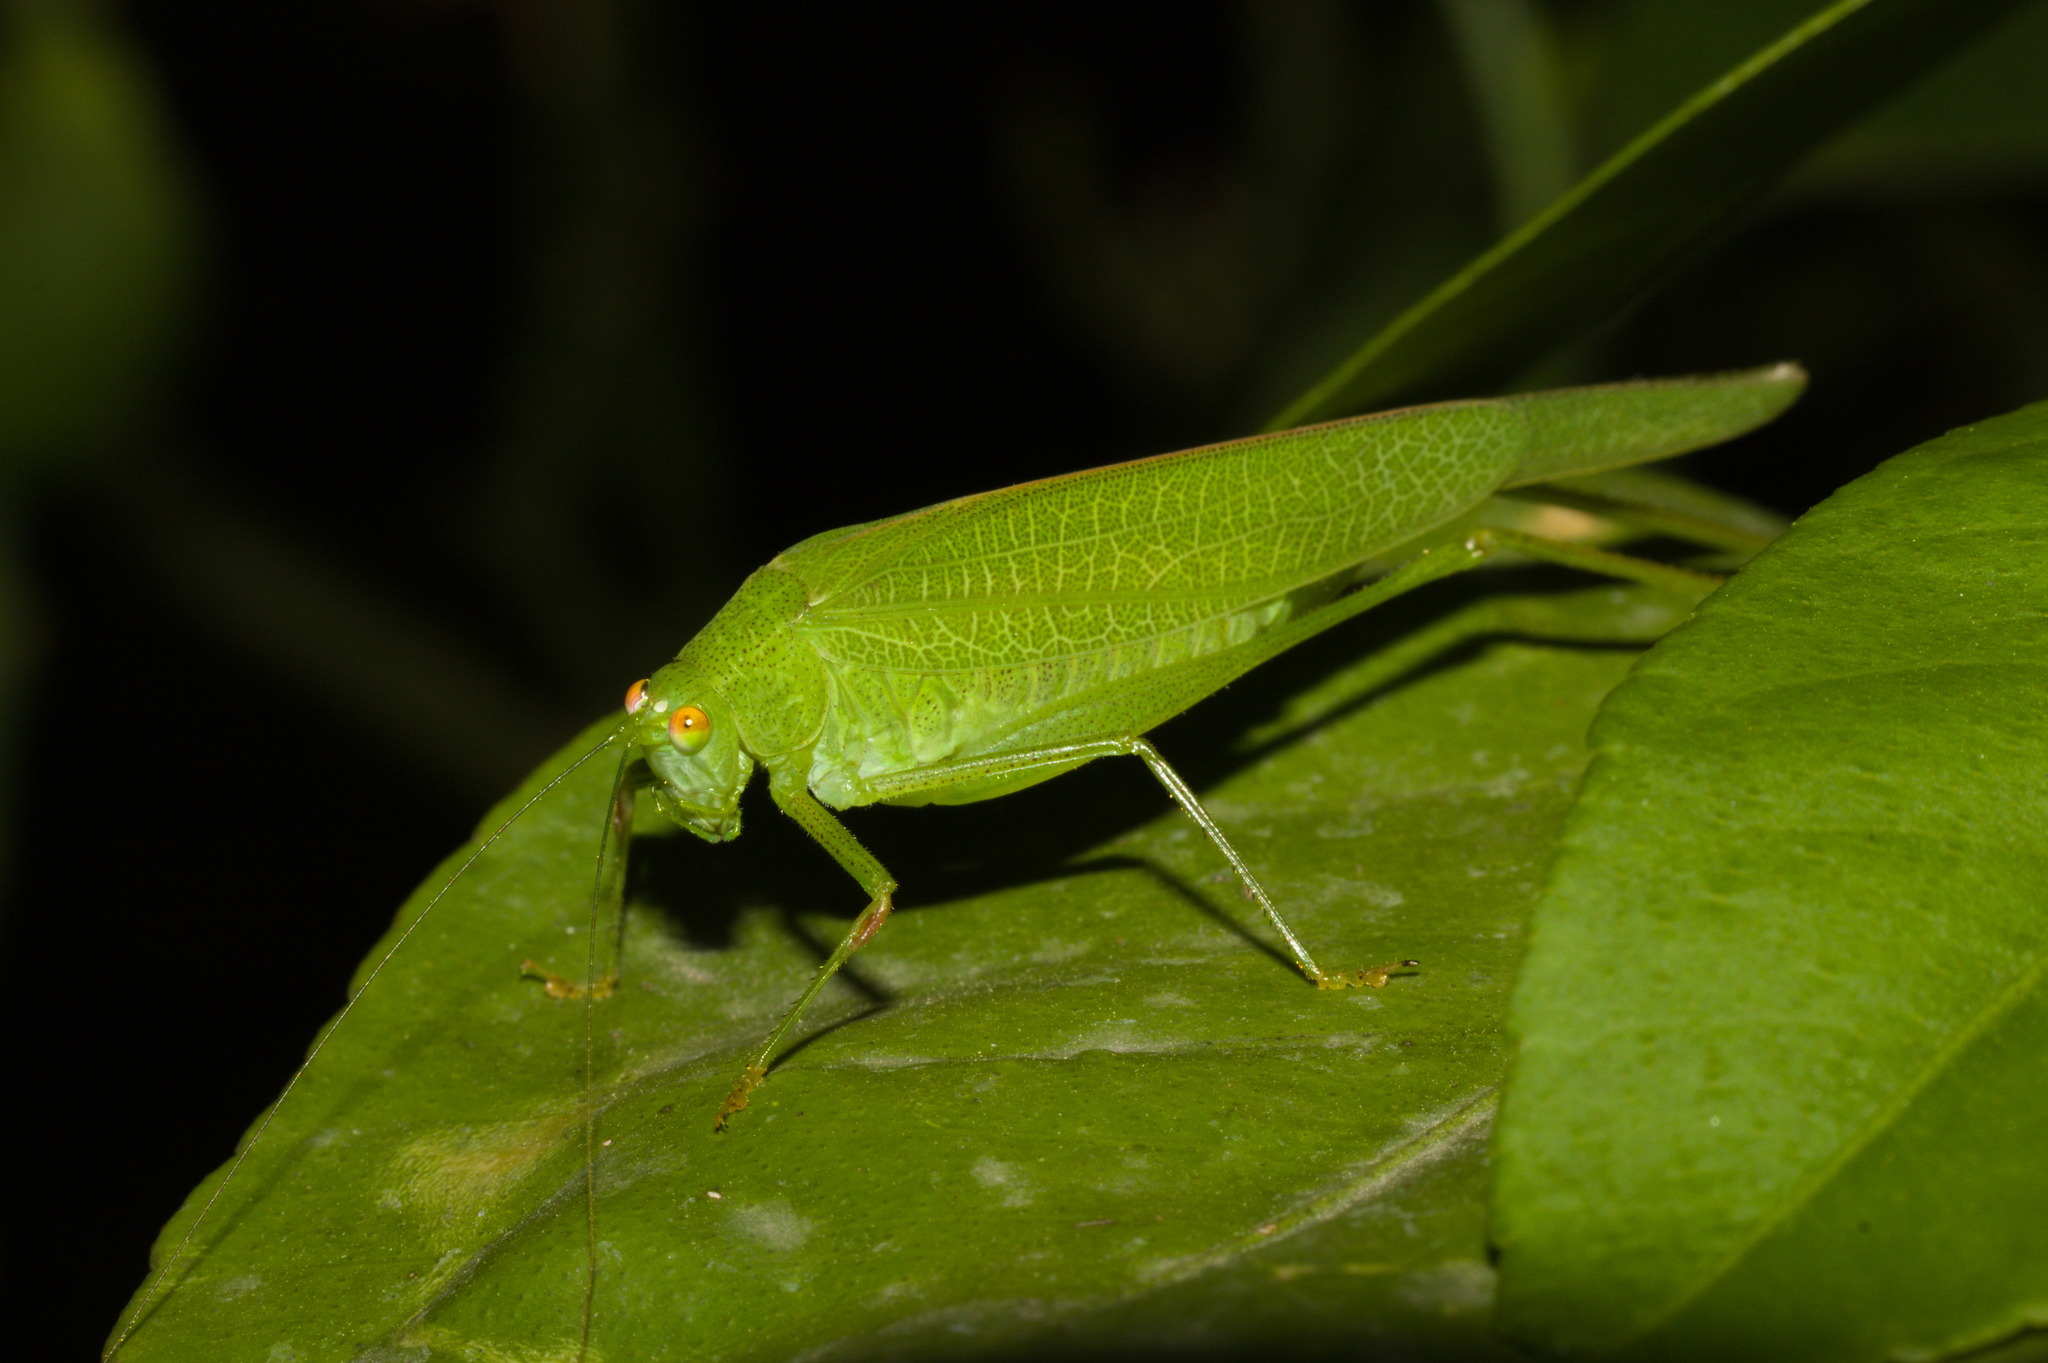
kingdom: Animalia
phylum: Arthropoda
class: Insecta
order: Orthoptera
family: Tettigoniidae
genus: Phaneroptera
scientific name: Phaneroptera nana
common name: Southern sickle bush-cricket
